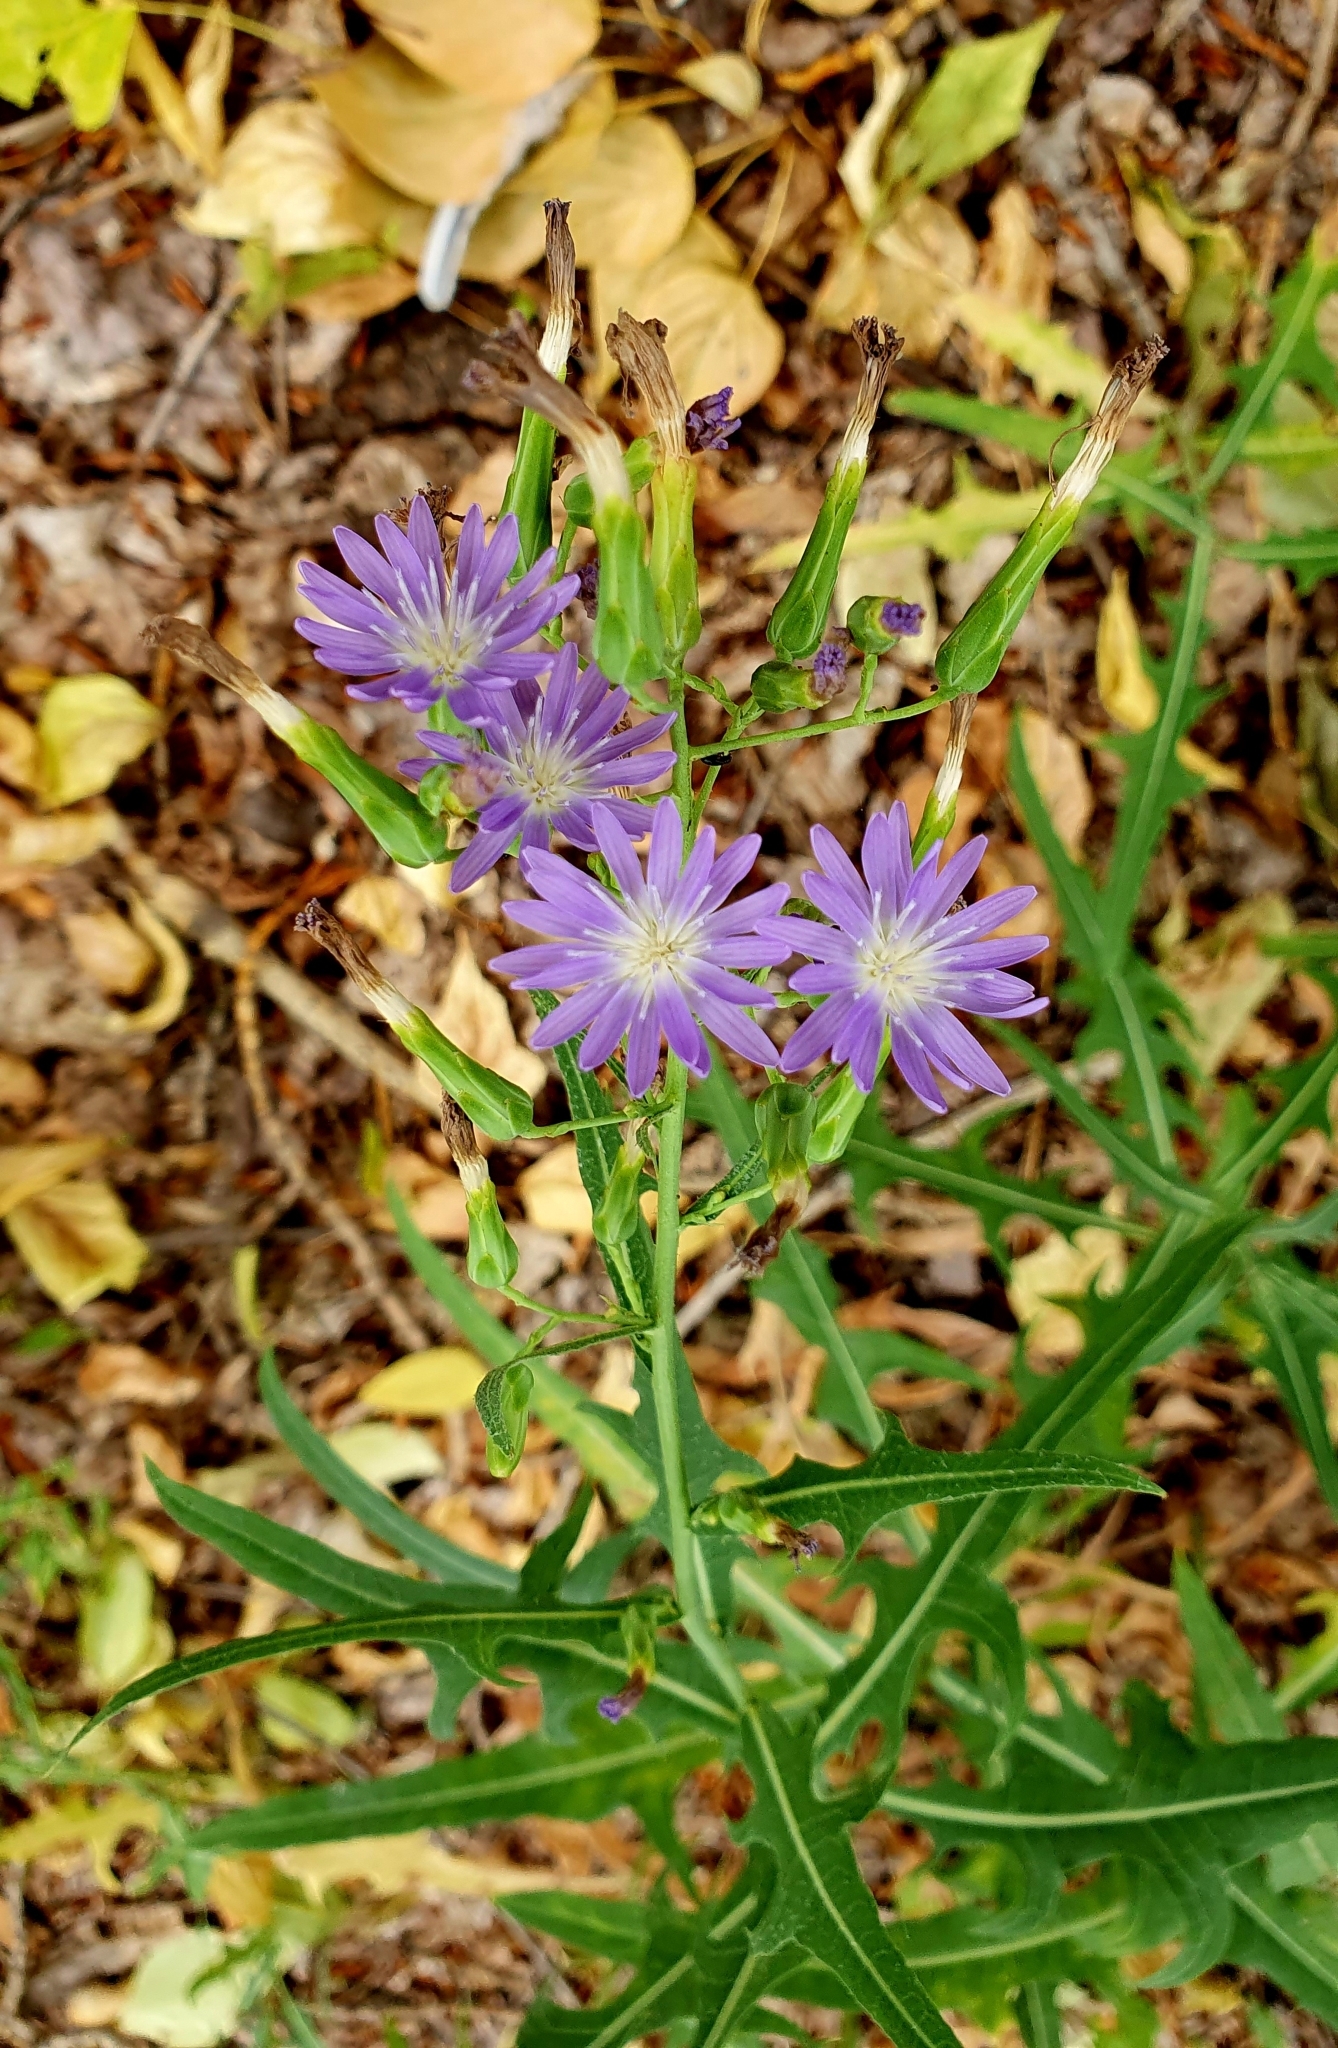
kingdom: Plantae
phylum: Tracheophyta
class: Magnoliopsida
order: Asterales
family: Asteraceae
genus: Lactuca
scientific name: Lactuca tatarica
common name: Blue lettuce
